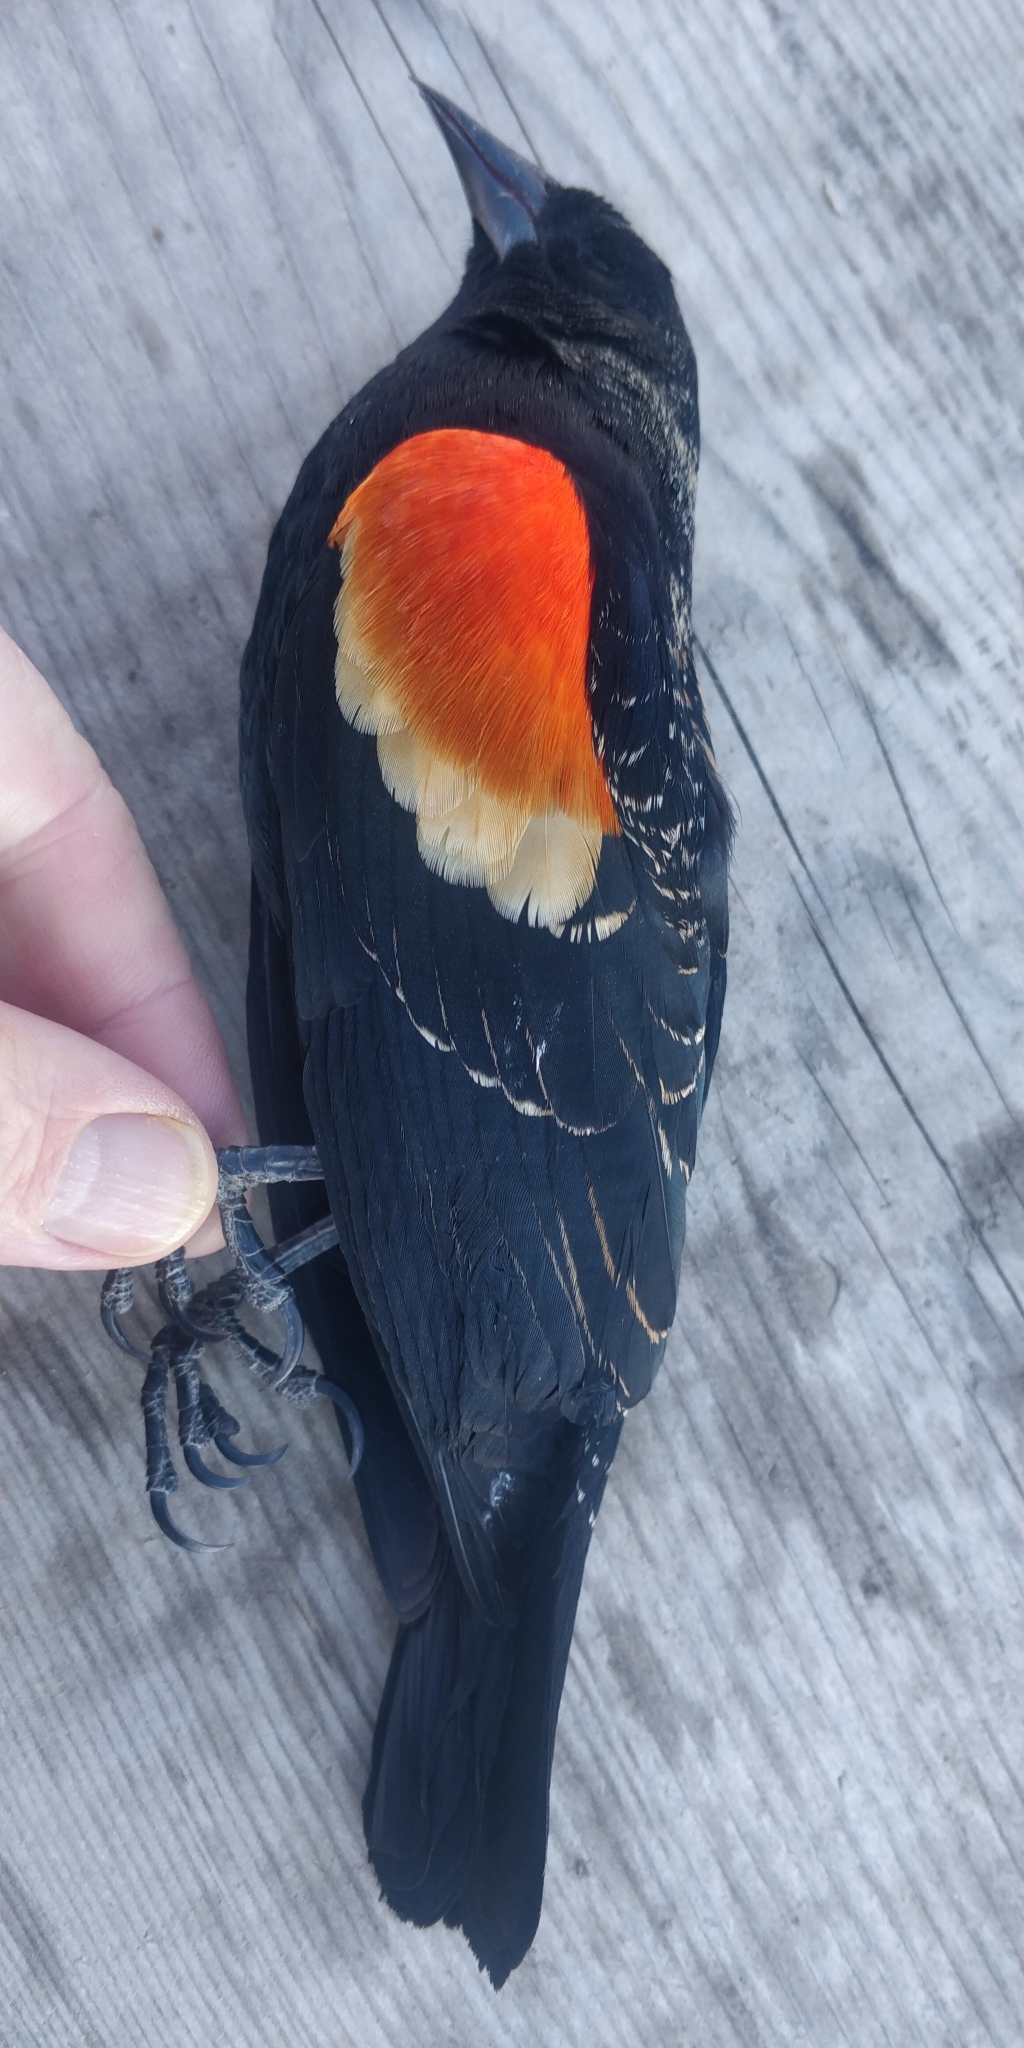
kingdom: Animalia
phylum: Chordata
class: Aves
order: Passeriformes
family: Icteridae
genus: Agelaius
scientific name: Agelaius phoeniceus
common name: Red-winged blackbird
